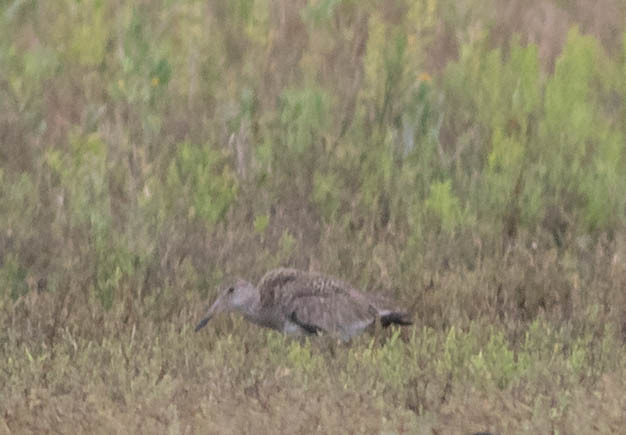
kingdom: Animalia
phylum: Chordata
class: Aves
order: Charadriiformes
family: Scolopacidae
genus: Tringa
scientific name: Tringa semipalmata
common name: Willet
